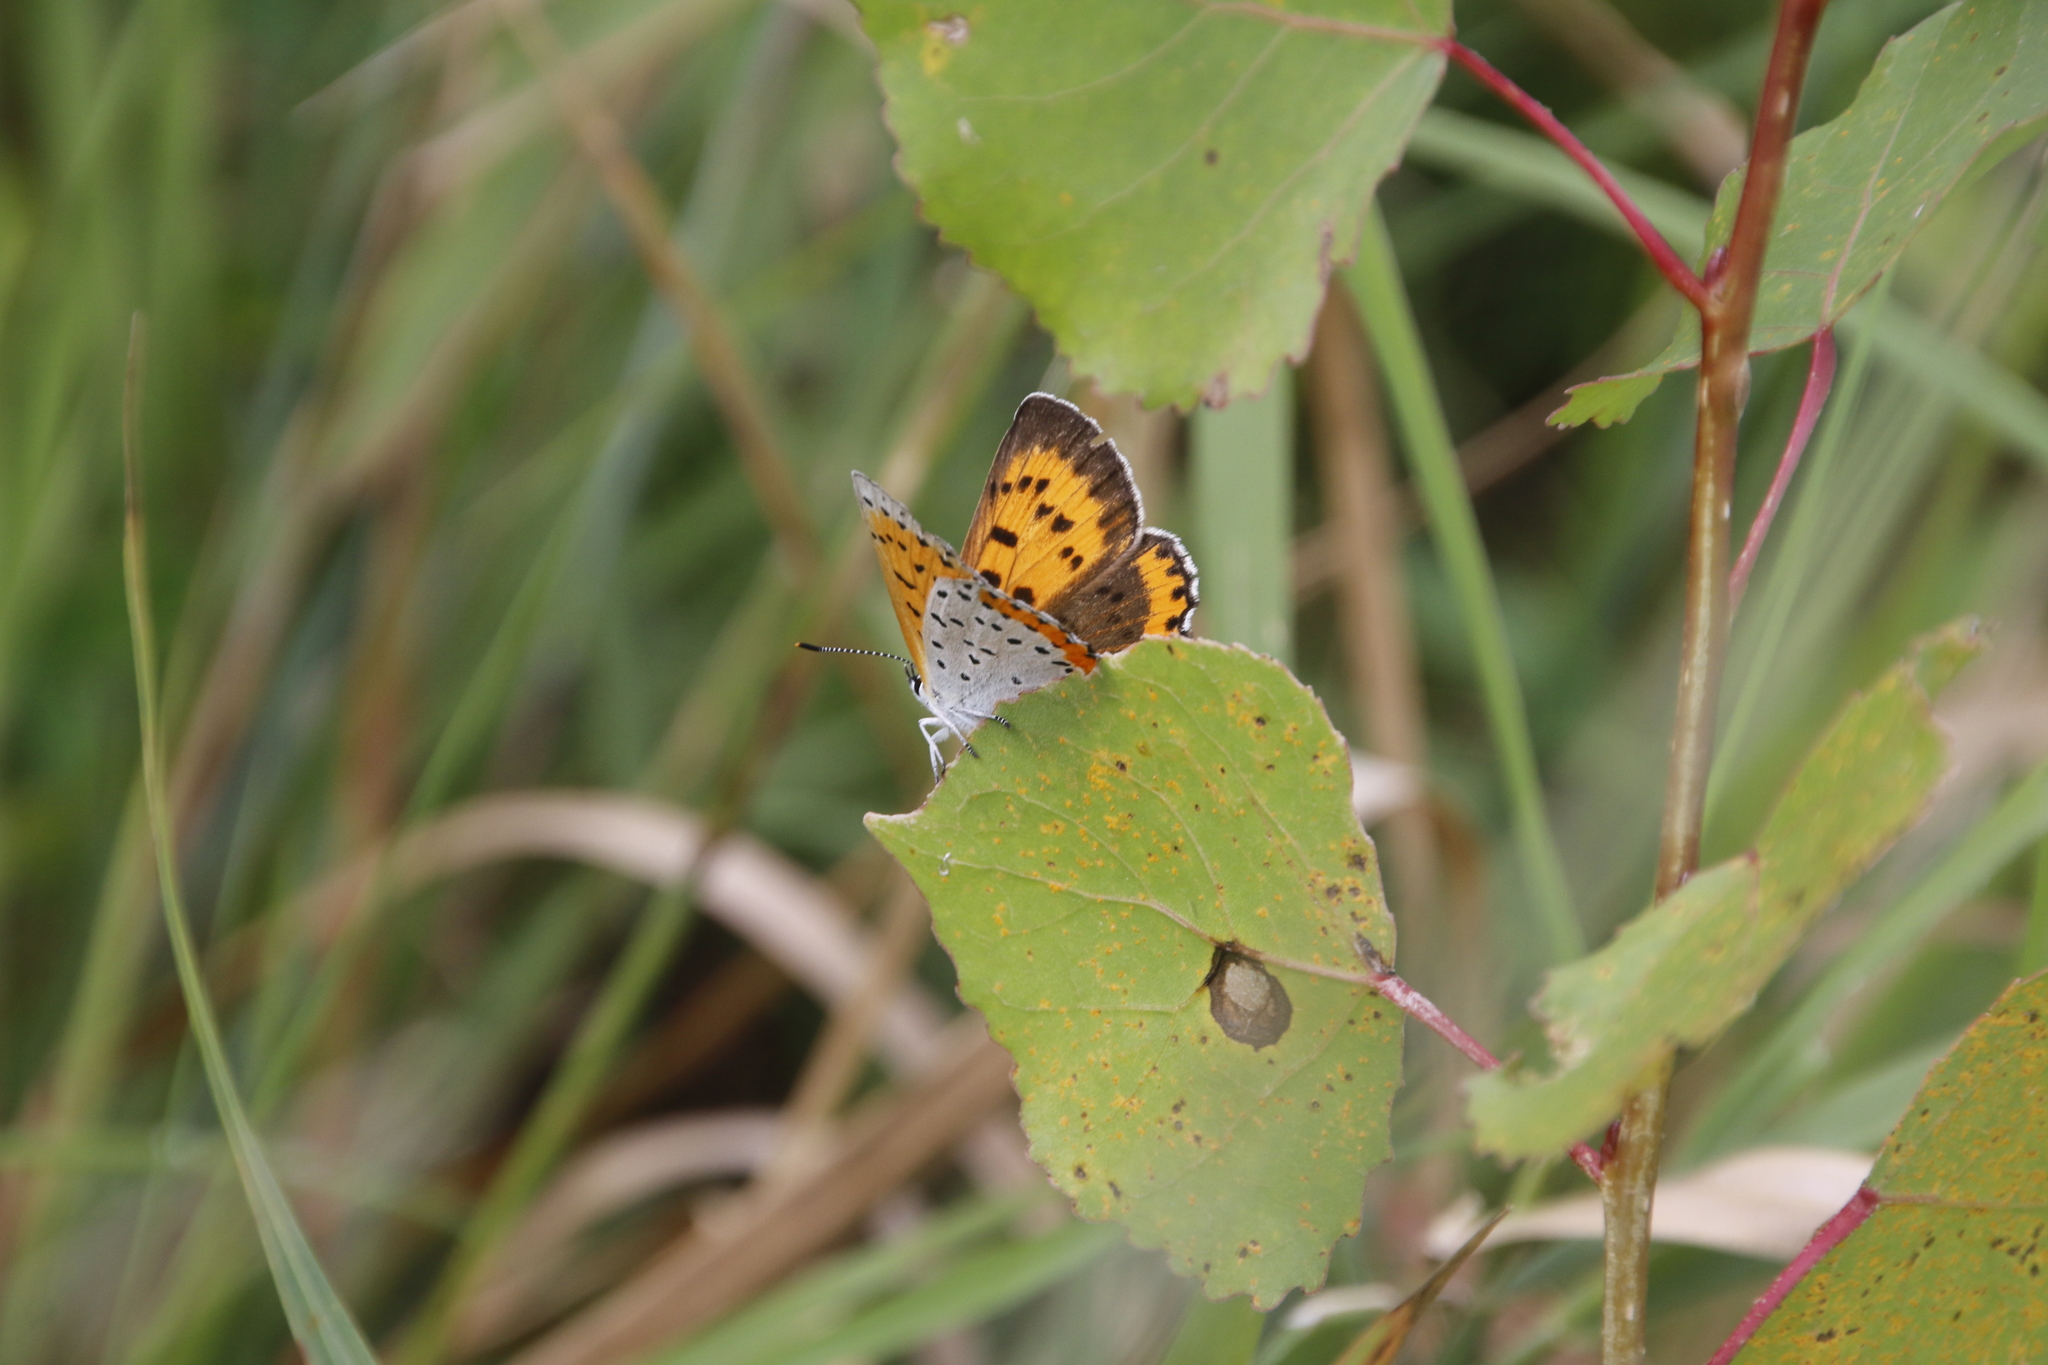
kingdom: Animalia
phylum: Arthropoda
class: Insecta
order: Lepidoptera
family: Lycaenidae
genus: Tharsalea
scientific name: Tharsalea hyllus
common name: Bronze copper
